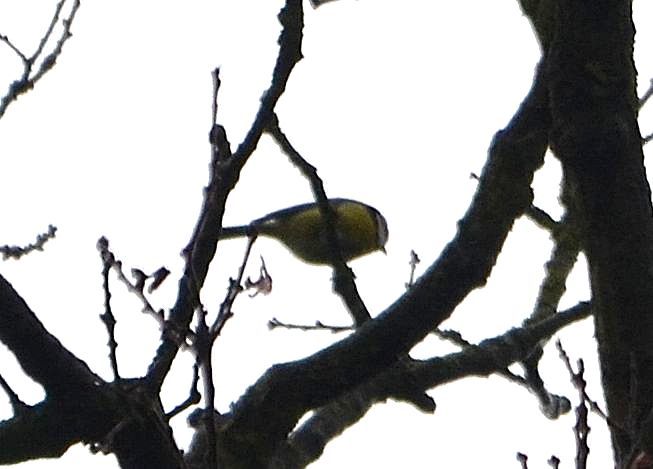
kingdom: Animalia
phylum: Chordata
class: Aves
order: Passeriformes
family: Paridae
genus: Cyanistes
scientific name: Cyanistes caeruleus
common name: Eurasian blue tit
